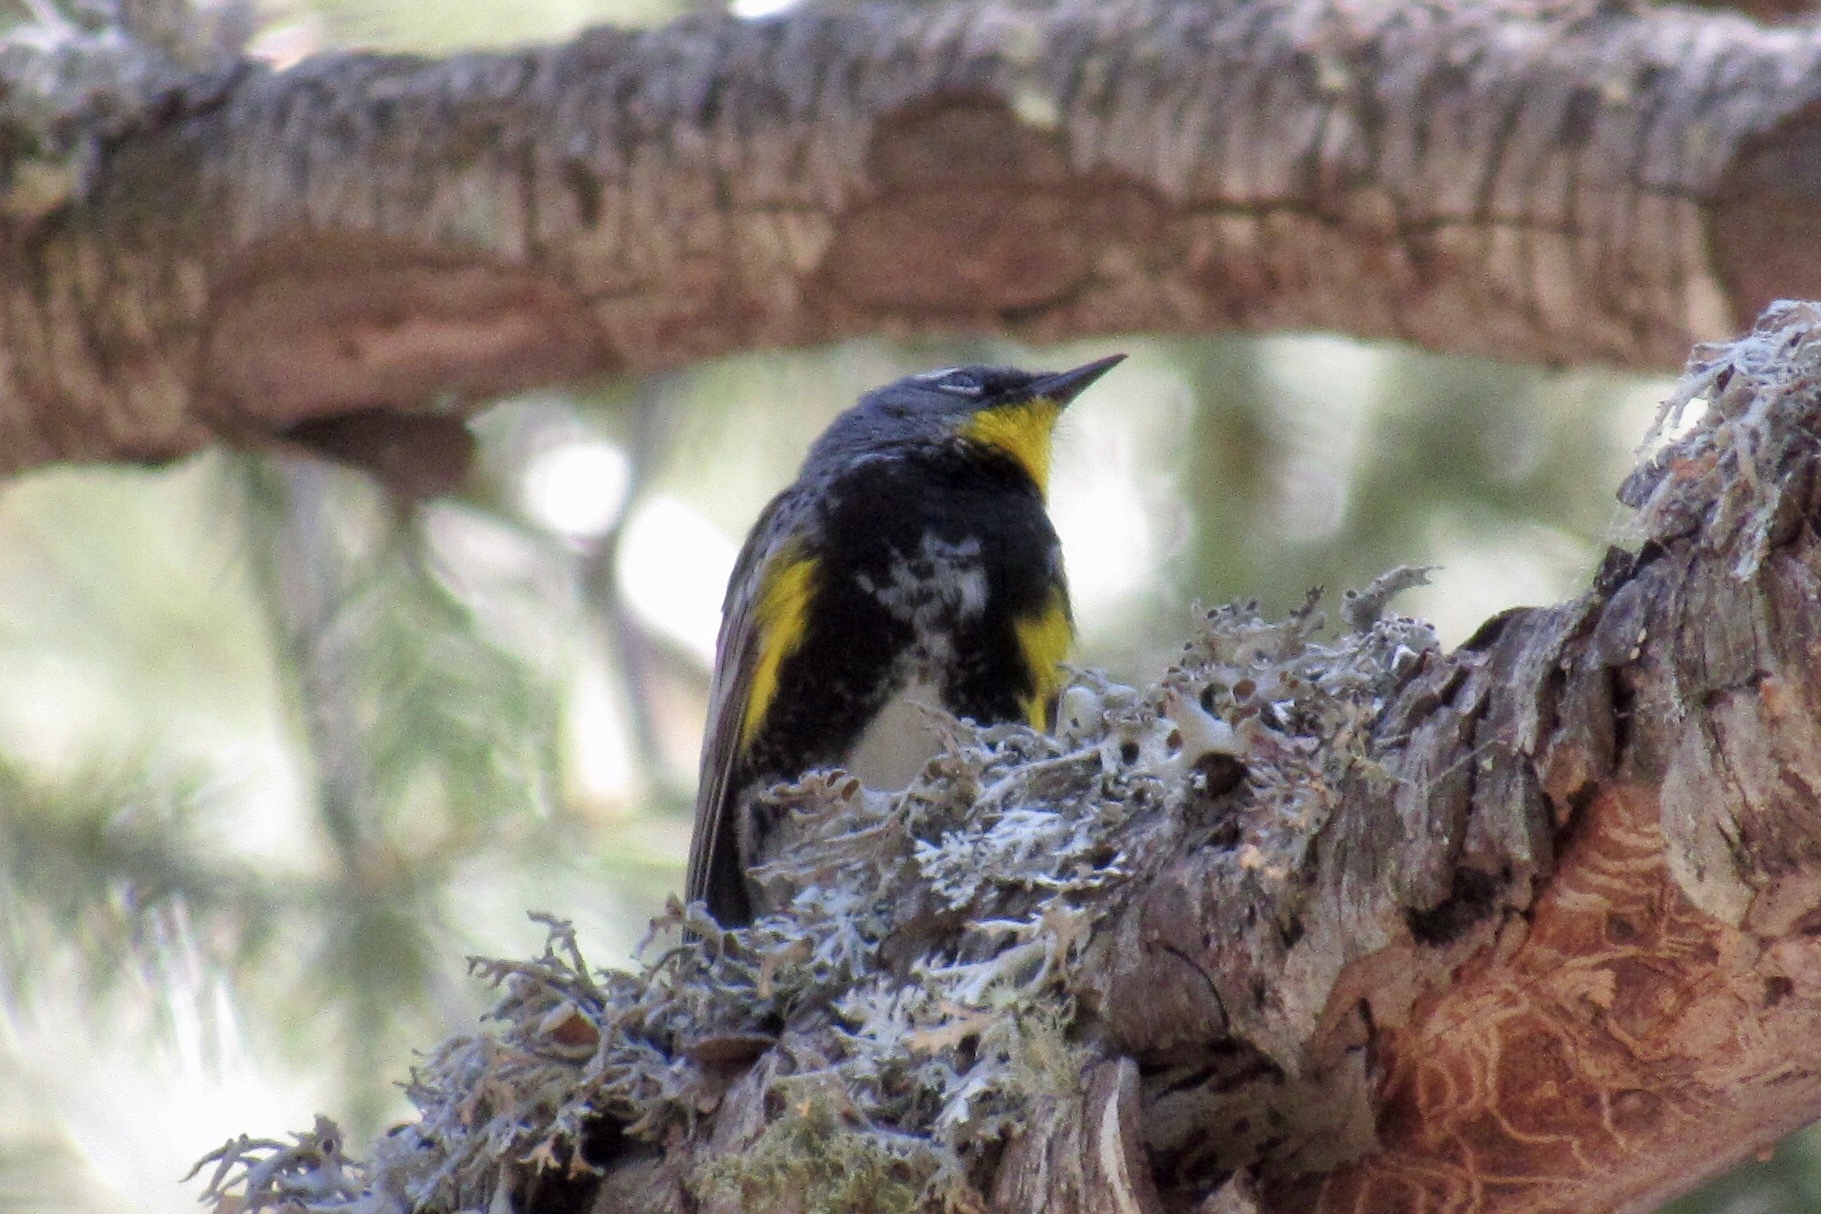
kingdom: Animalia
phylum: Chordata
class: Aves
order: Passeriformes
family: Parulidae
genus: Setophaga
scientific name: Setophaga auduboni
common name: Audubon's warbler
